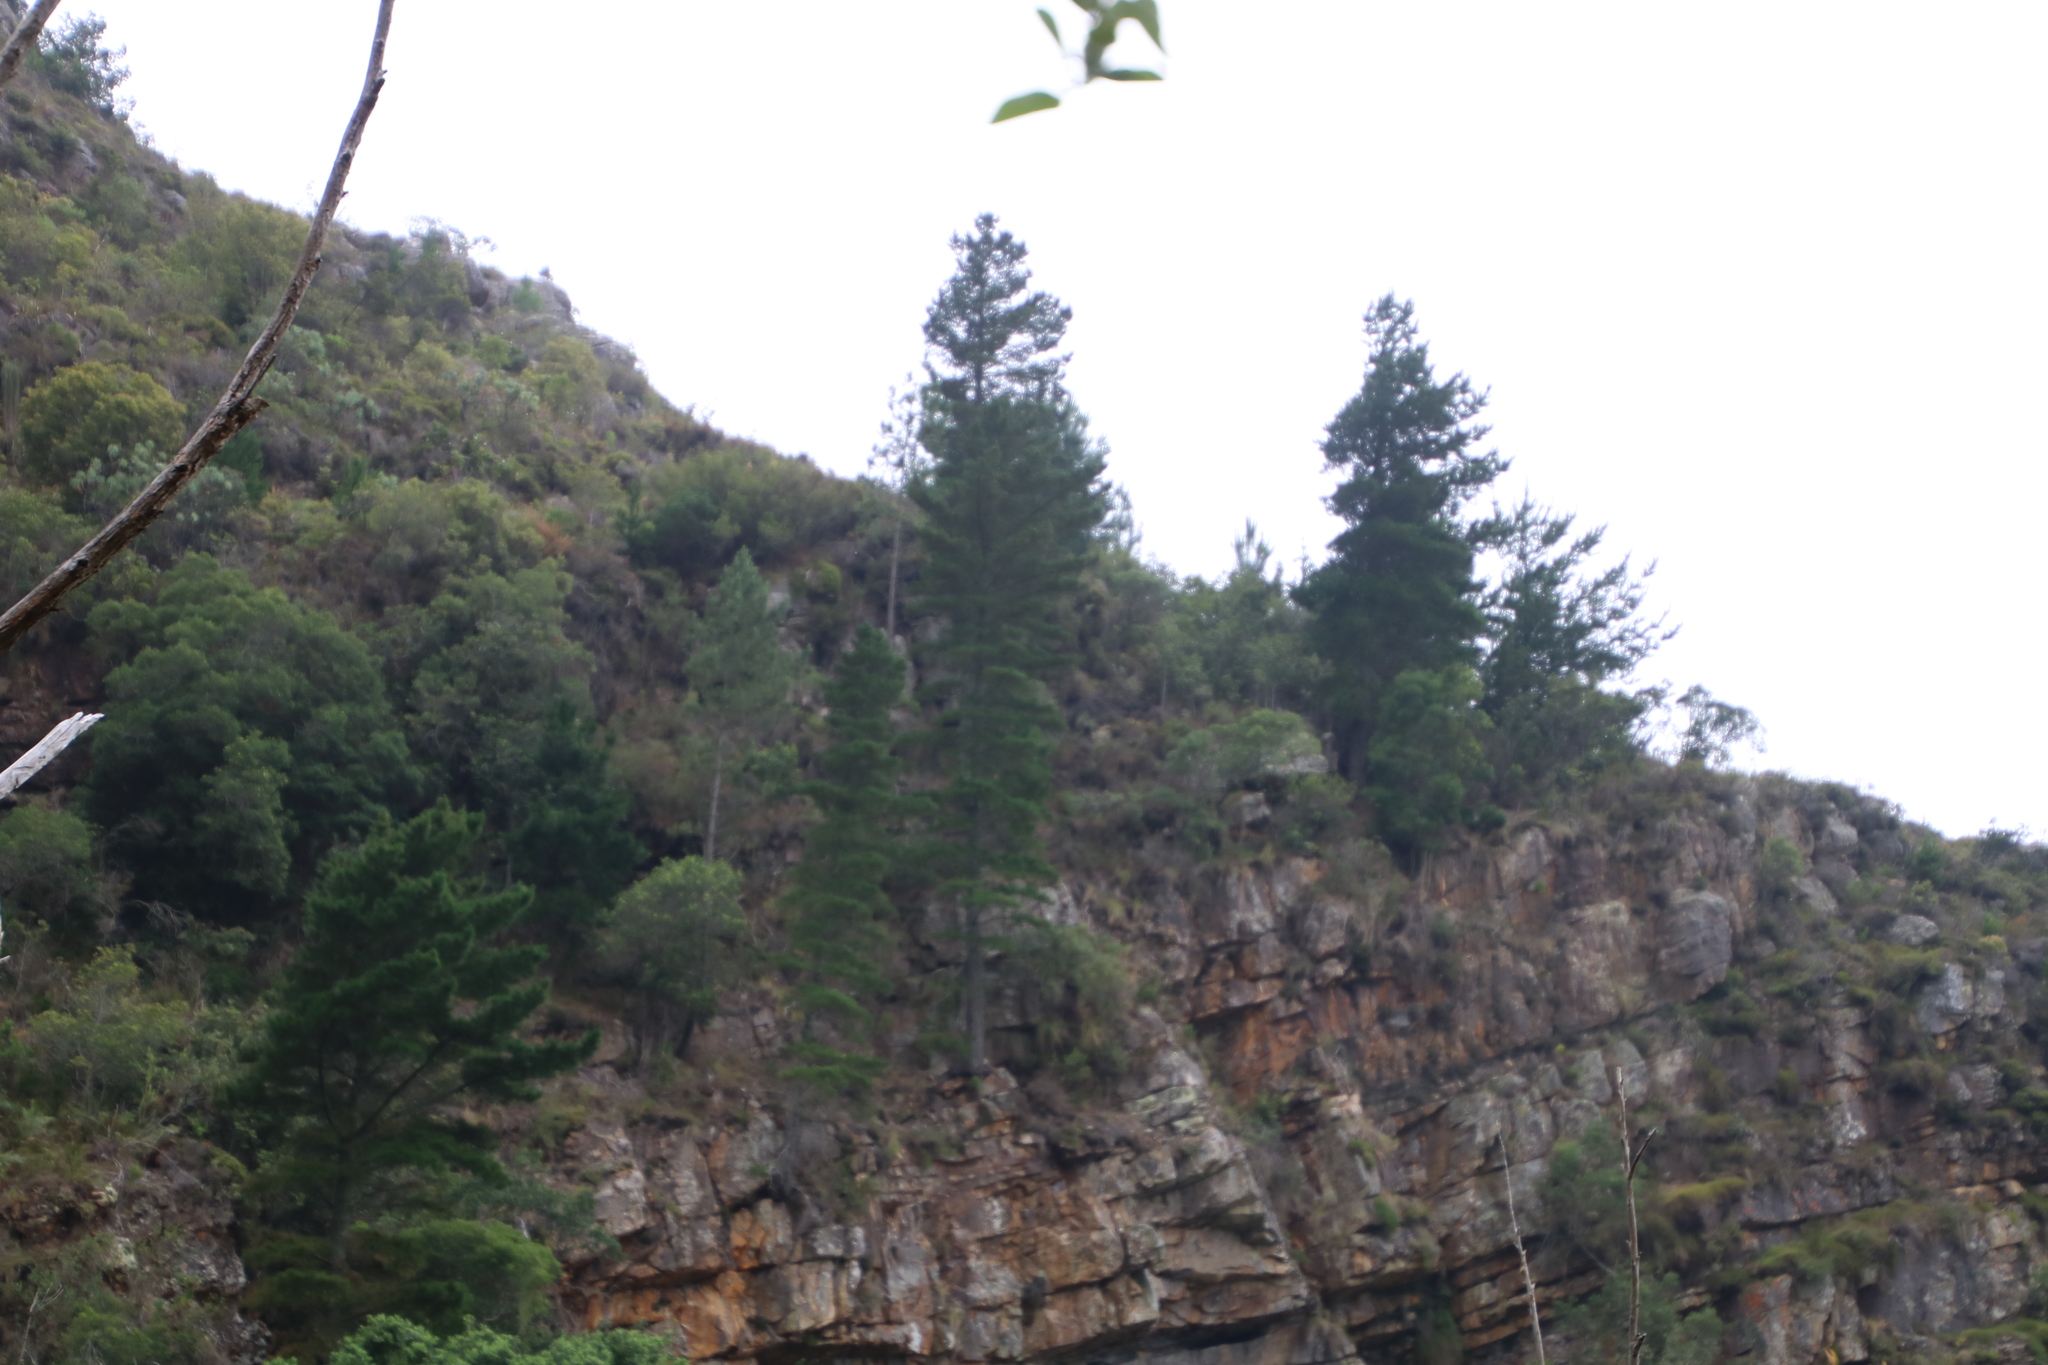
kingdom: Plantae
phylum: Tracheophyta
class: Pinopsida
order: Pinales
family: Pinaceae
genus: Pinus
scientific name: Pinus radiata
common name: Monterey pine
